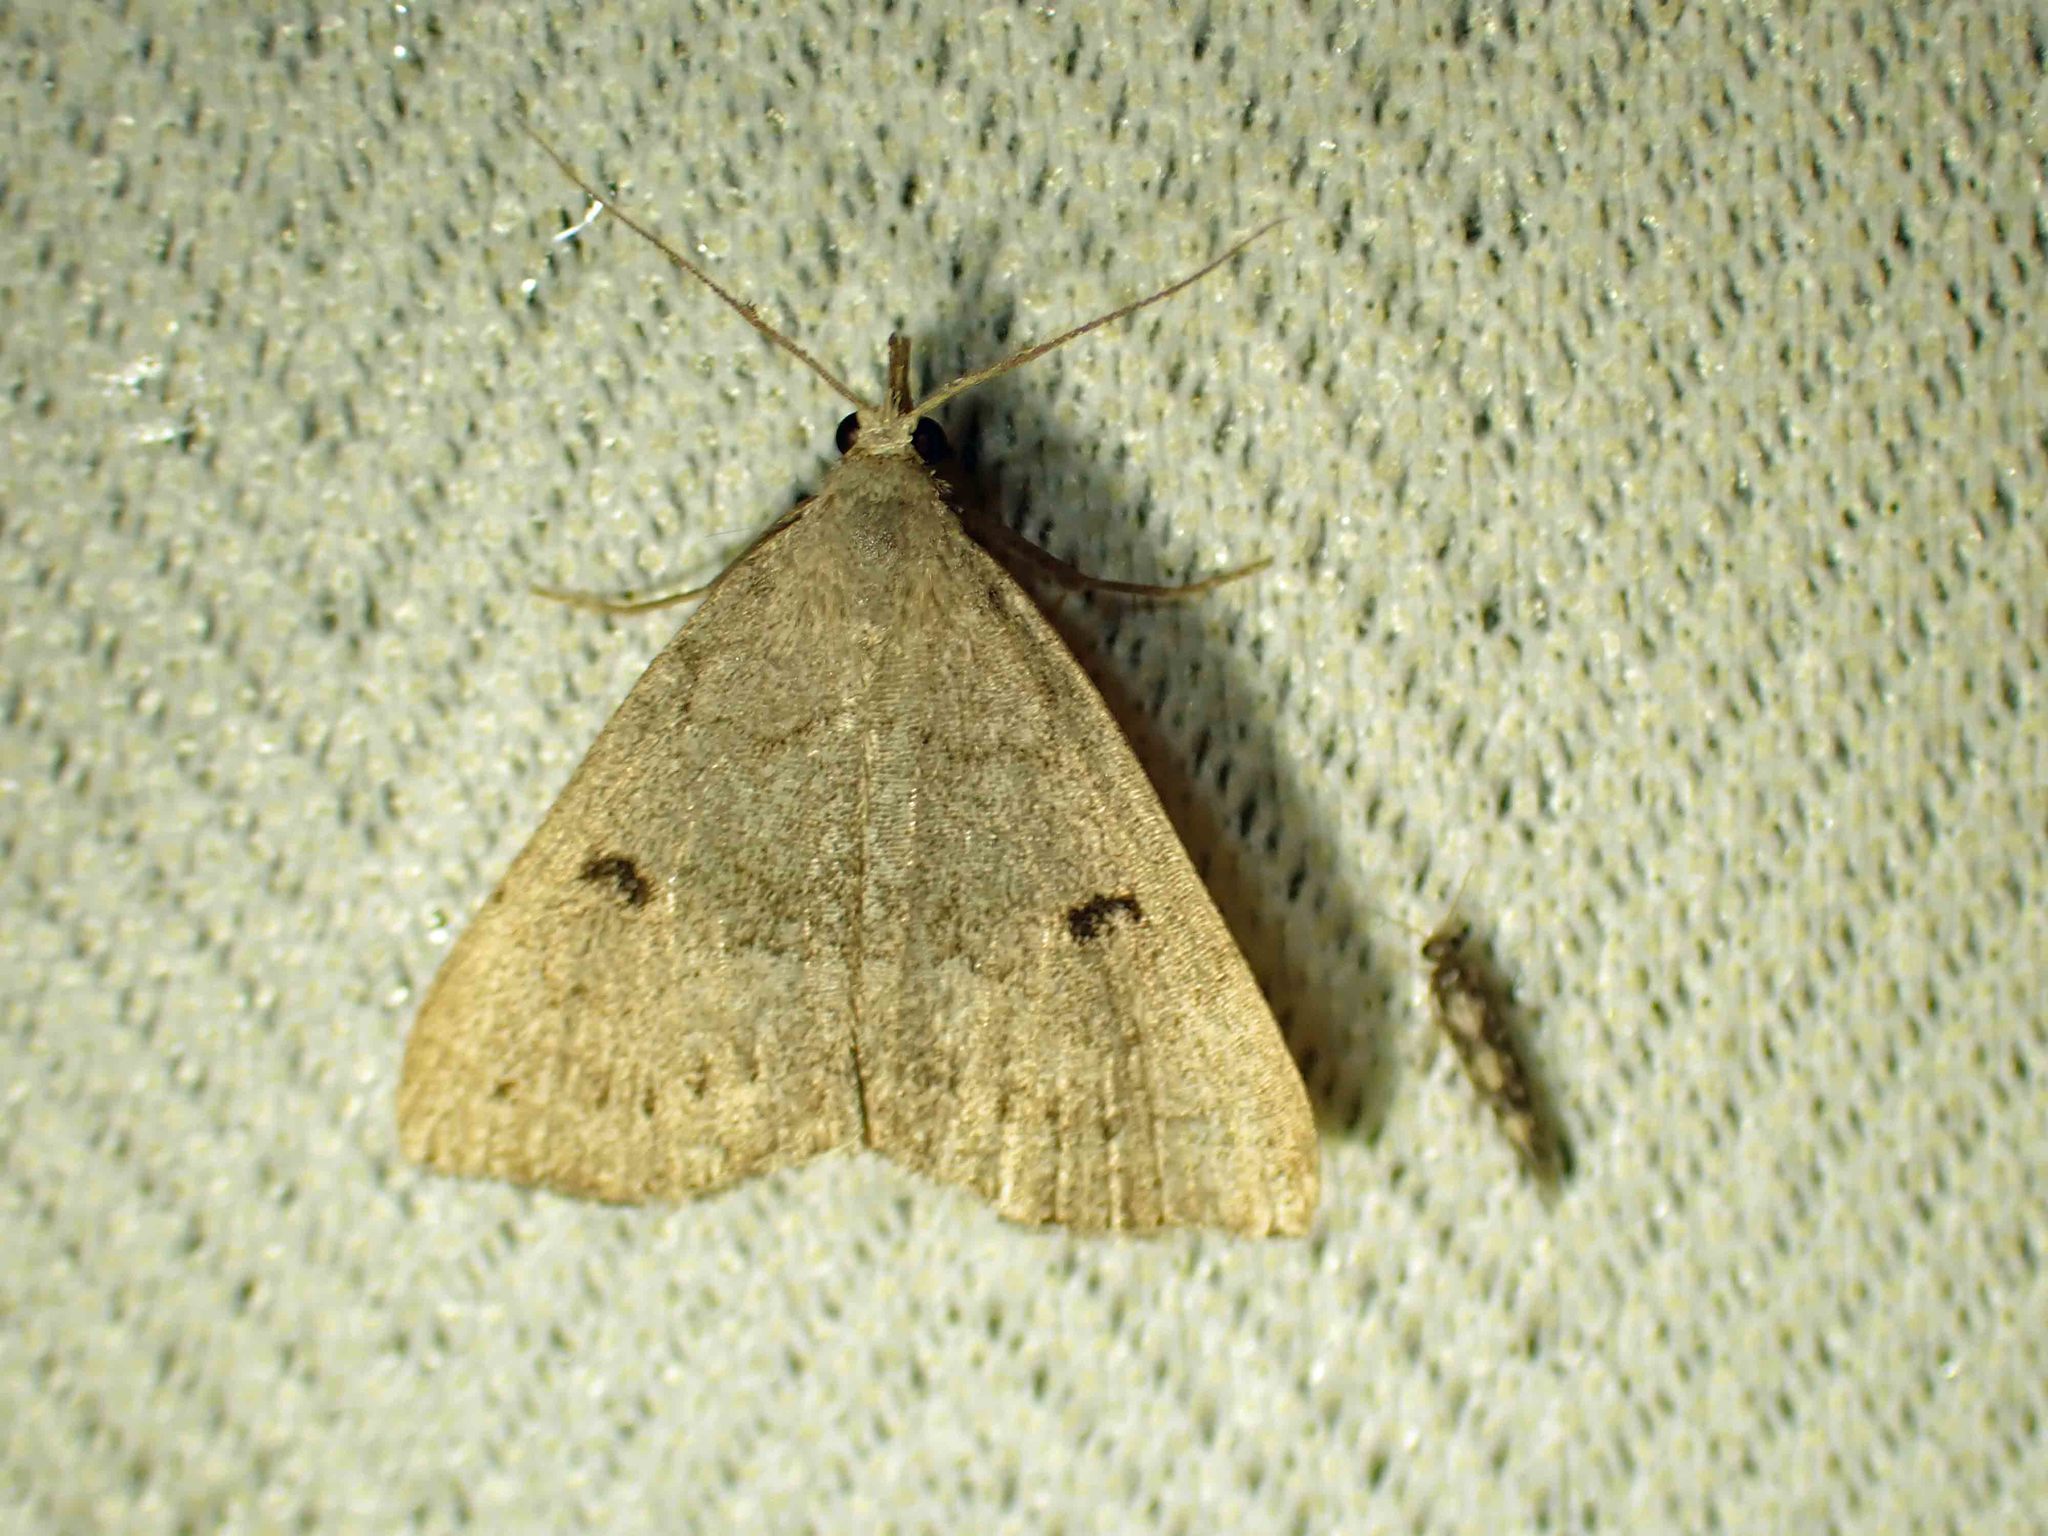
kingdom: Animalia
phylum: Arthropoda
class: Insecta
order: Lepidoptera
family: Erebidae
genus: Macrochilo
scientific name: Macrochilo morbidalis
